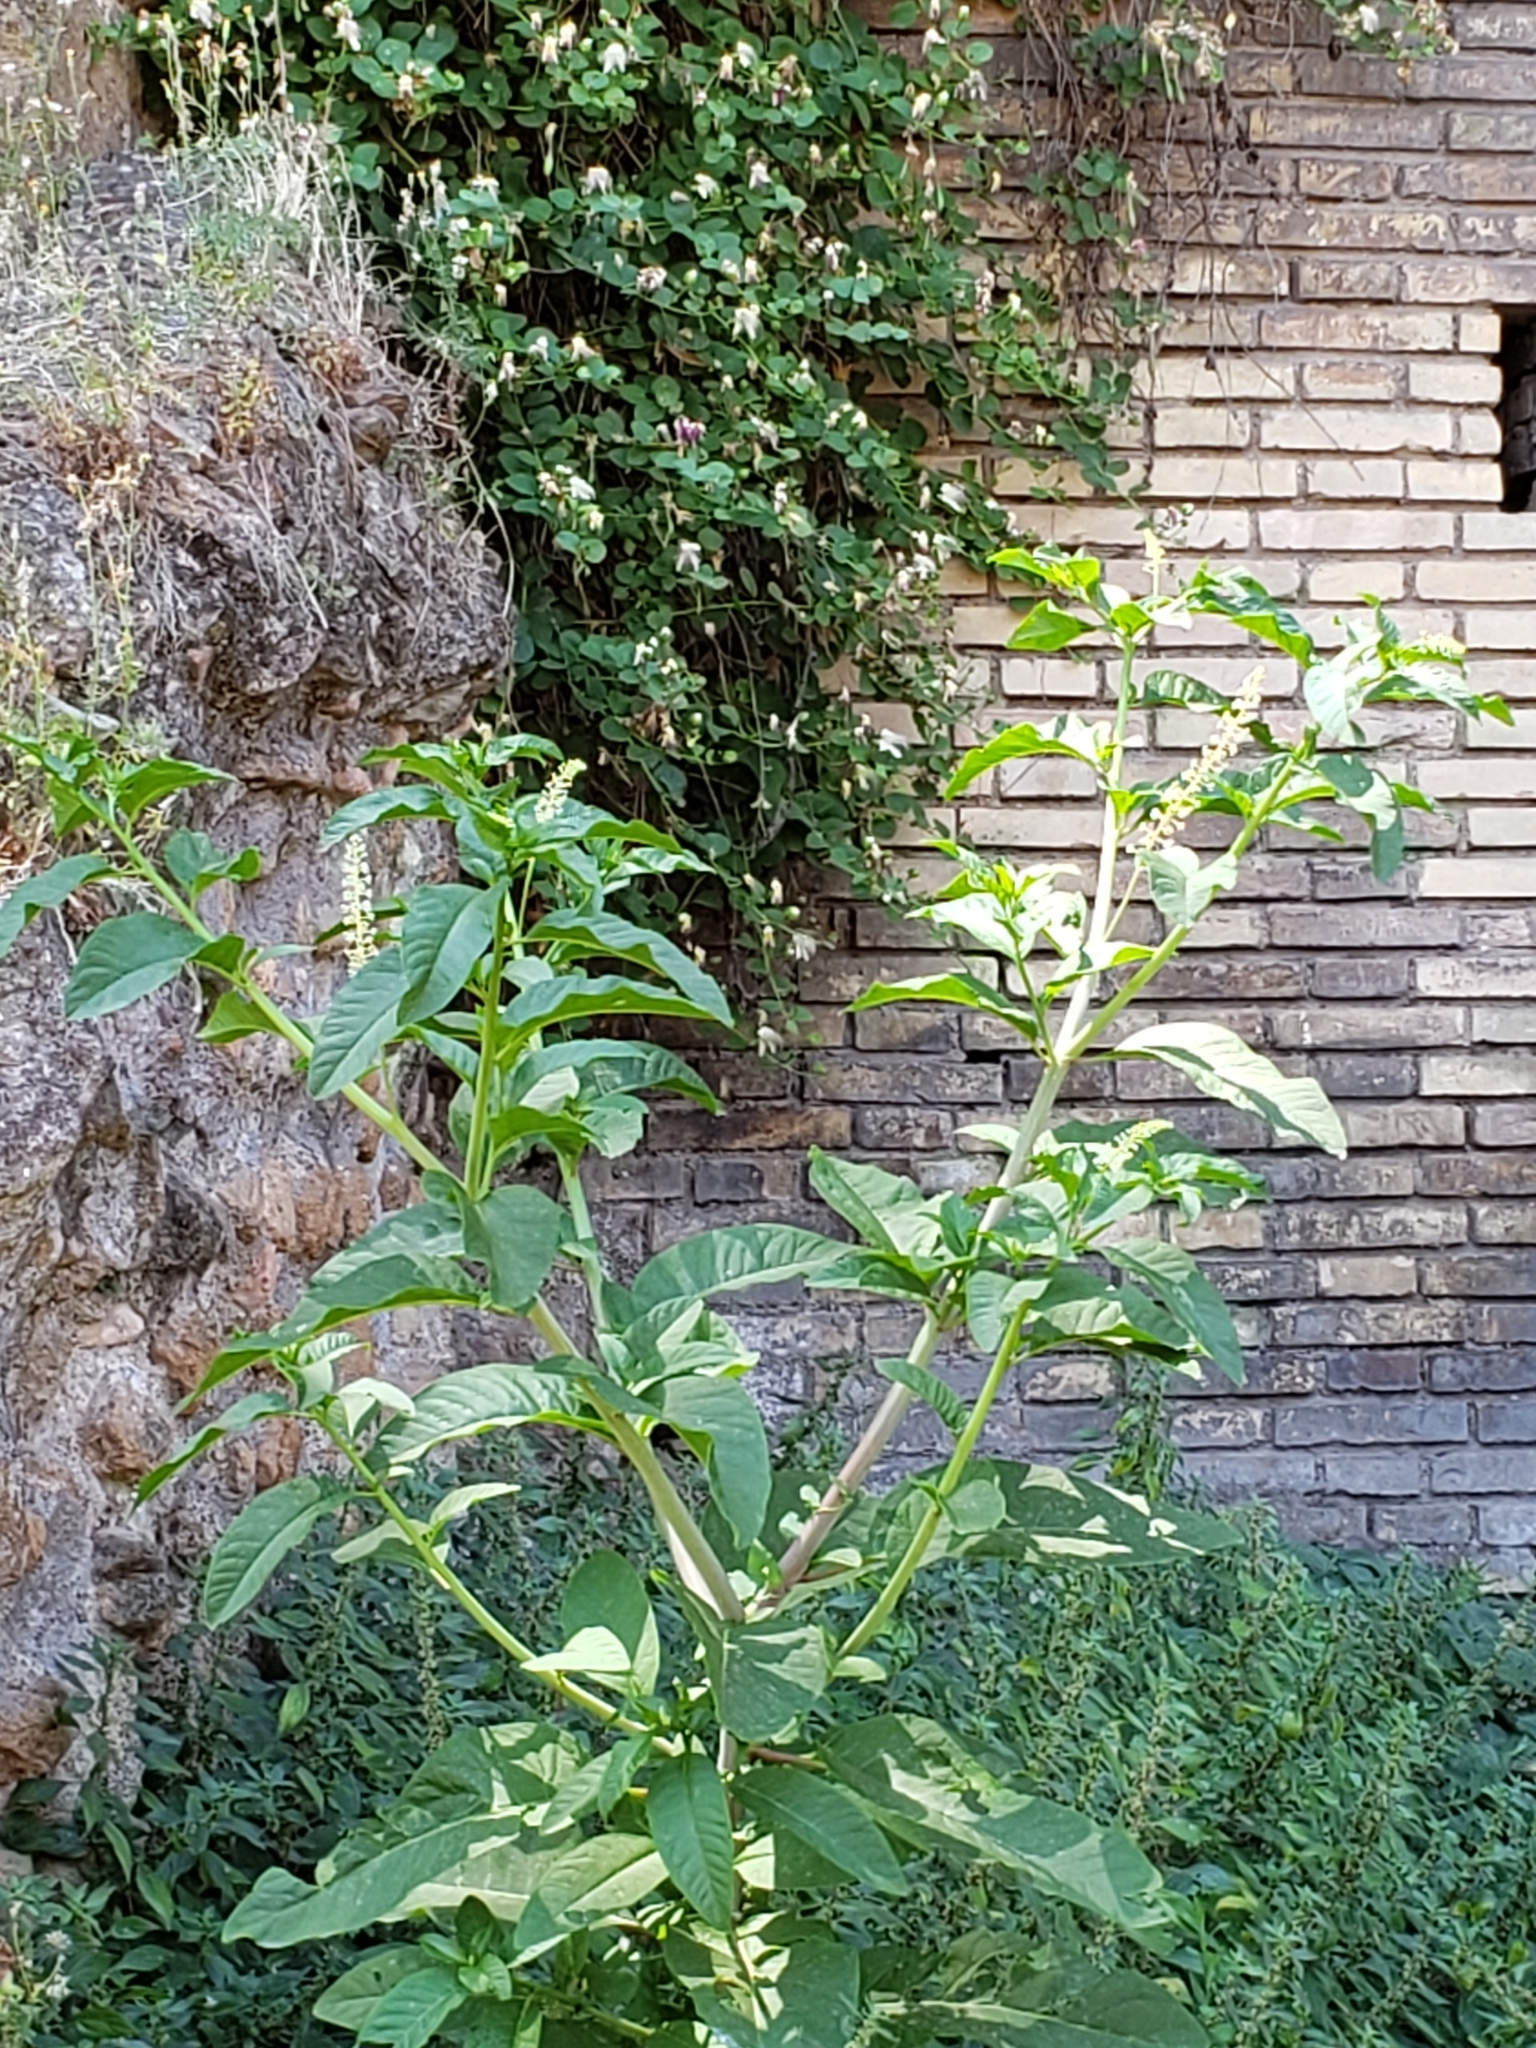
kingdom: Plantae
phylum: Tracheophyta
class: Magnoliopsida
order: Caryophyllales
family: Phytolaccaceae
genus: Phytolacca
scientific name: Phytolacca americana
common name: American pokeweed
